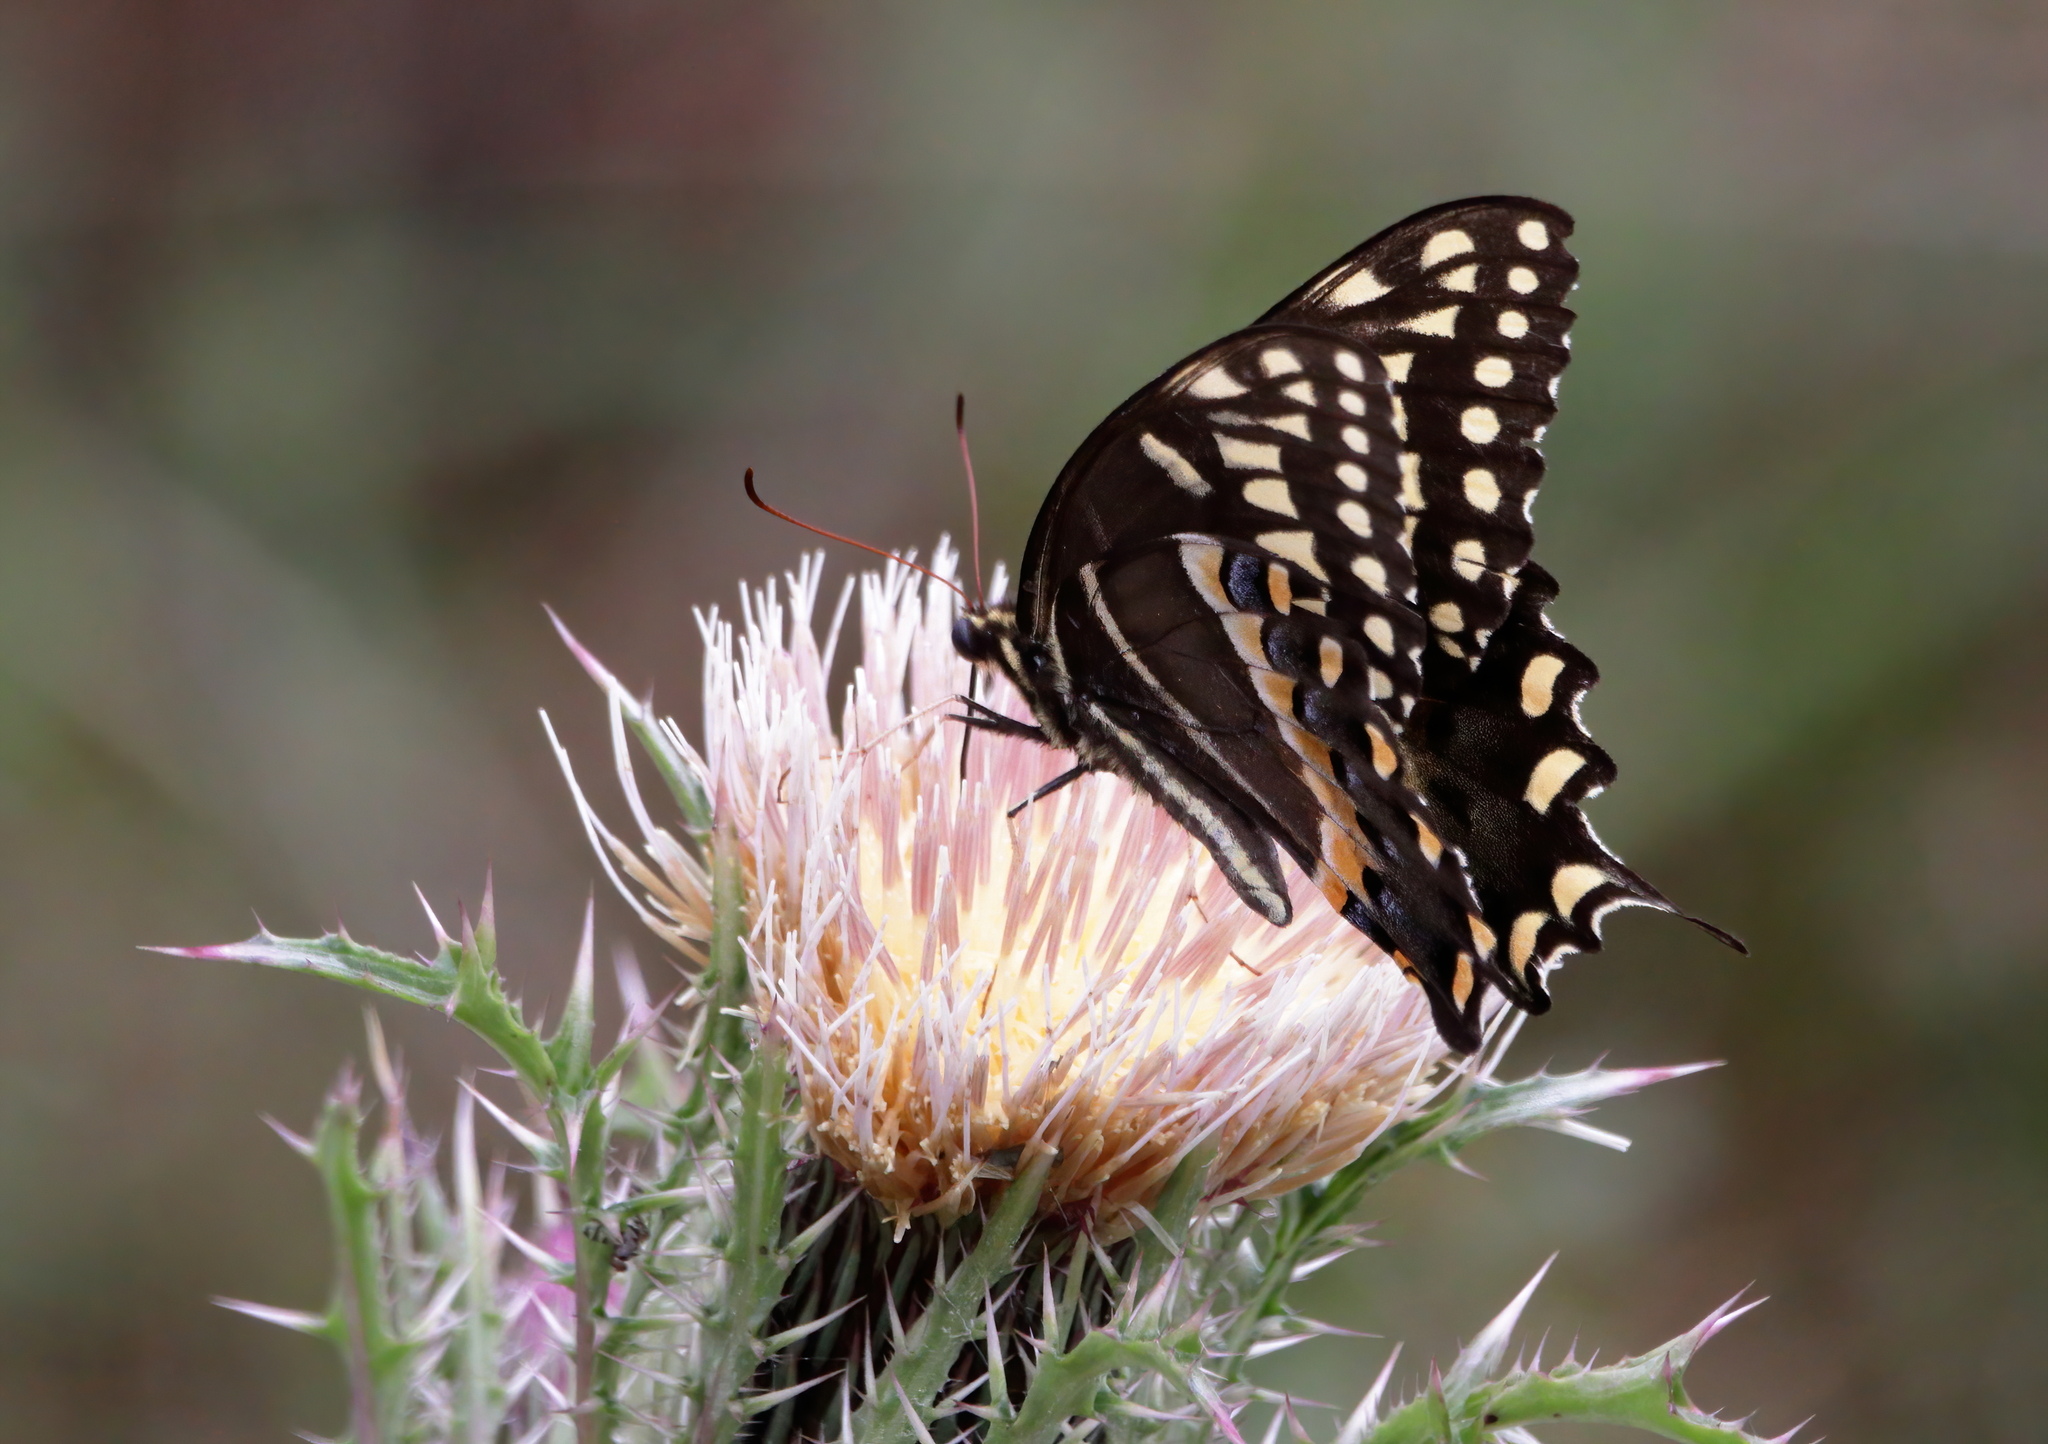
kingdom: Animalia
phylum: Arthropoda
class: Insecta
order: Lepidoptera
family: Papilionidae
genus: Papilio
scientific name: Papilio palamedes
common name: Palamedes swallowtail
